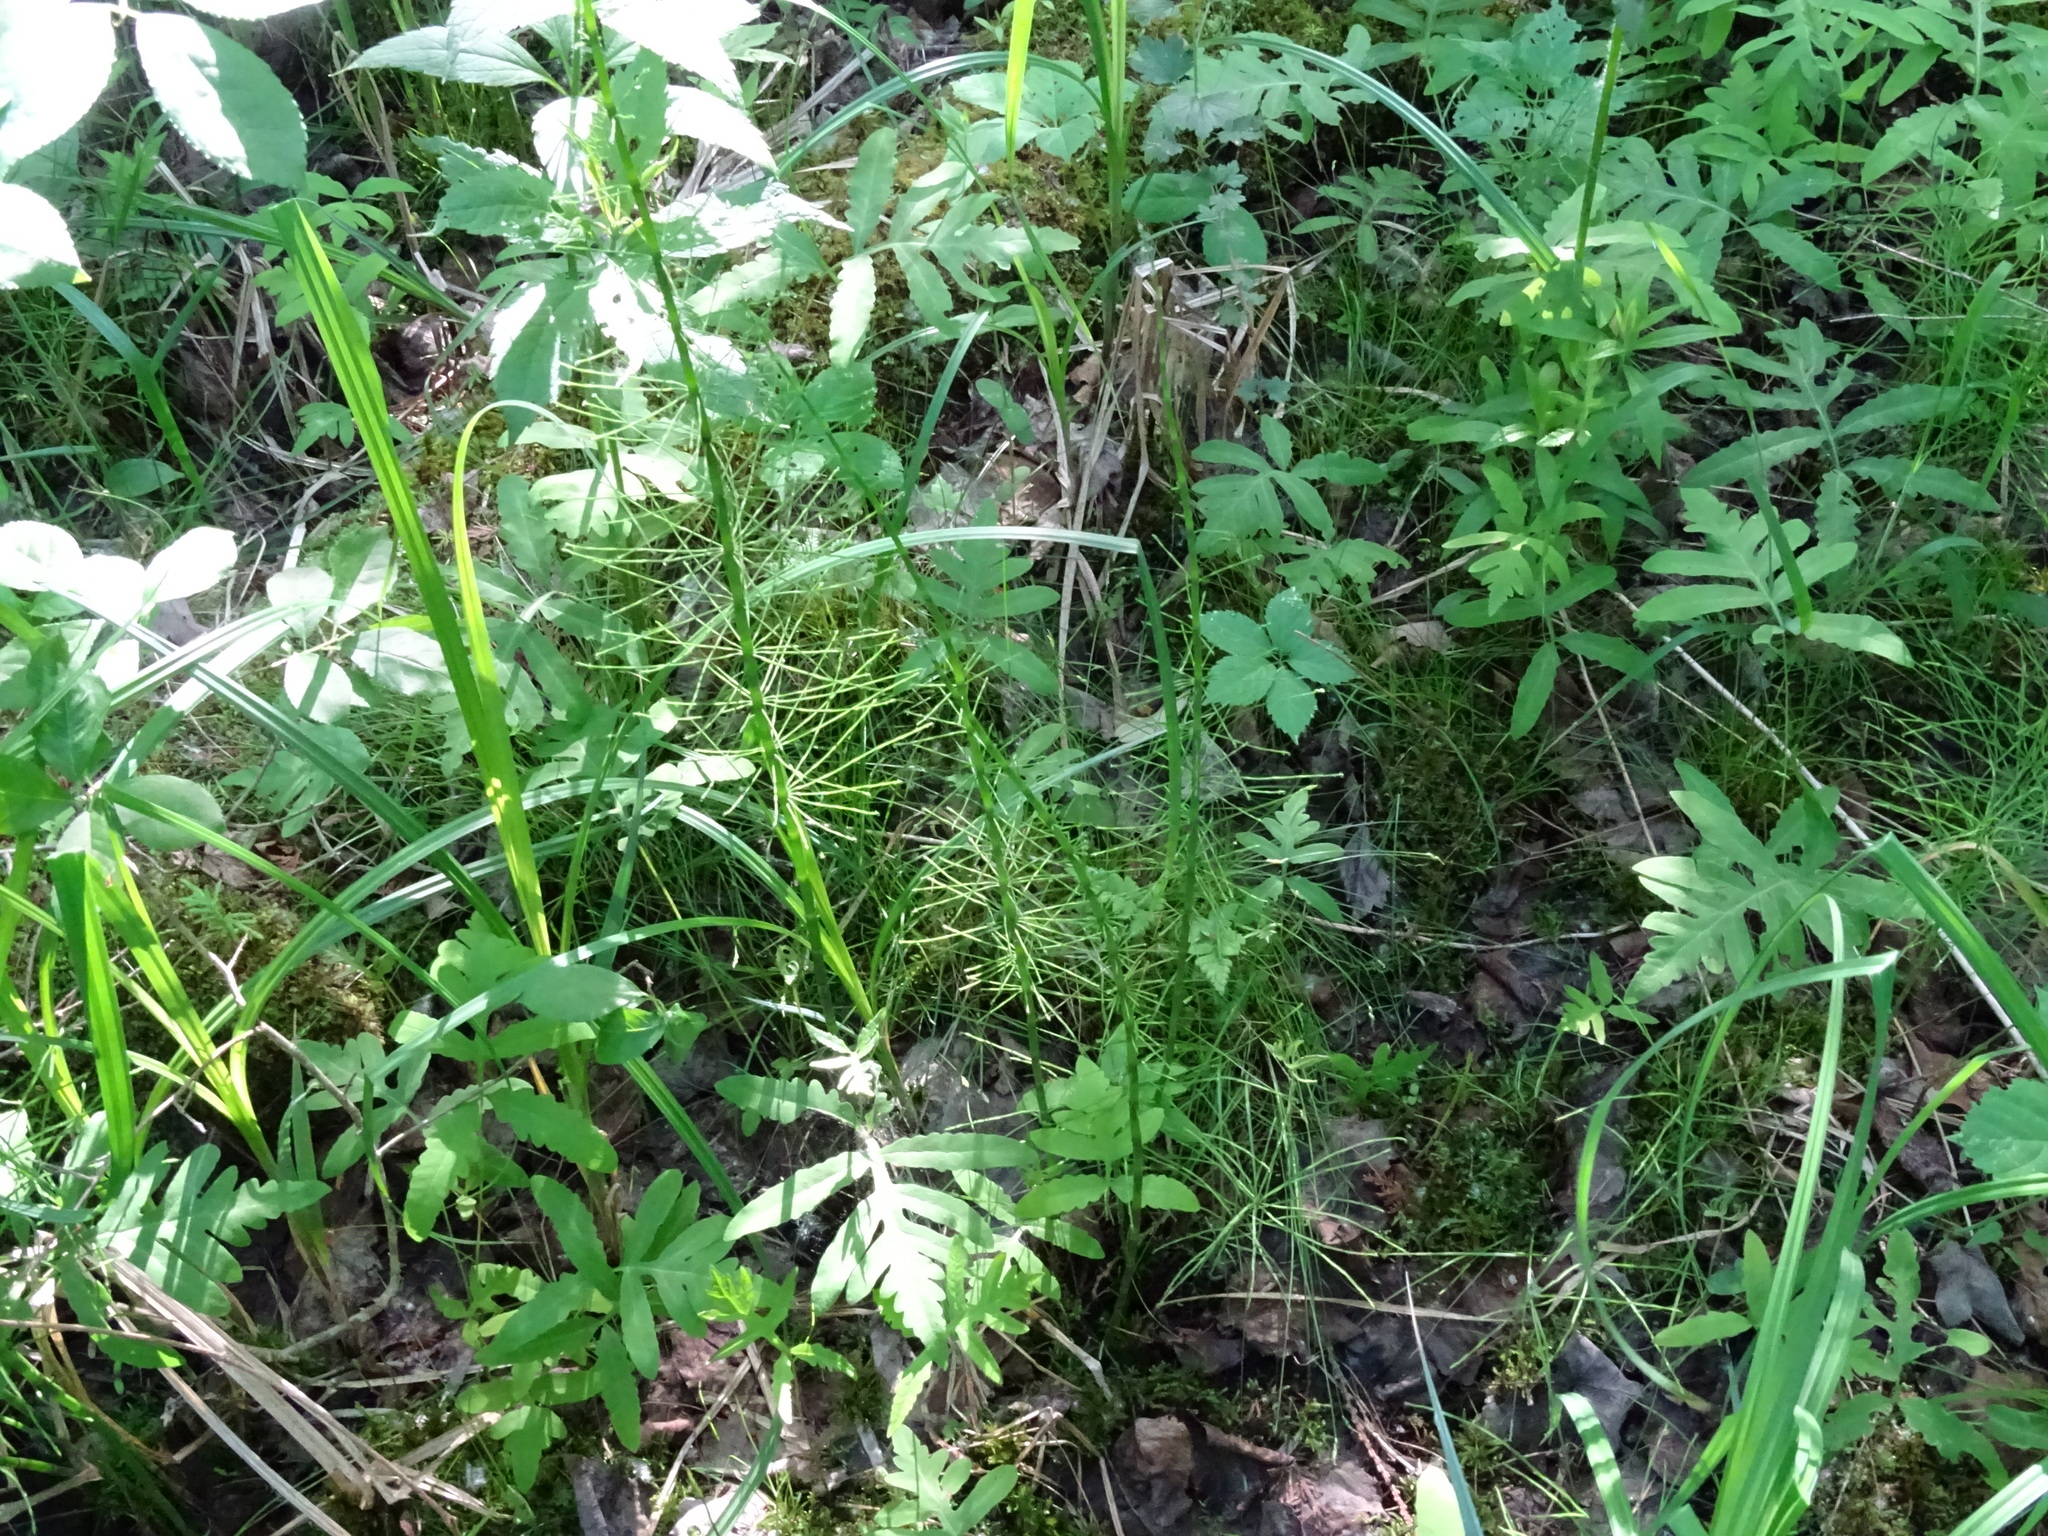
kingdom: Plantae
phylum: Tracheophyta
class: Polypodiopsida
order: Equisetales
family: Equisetaceae
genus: Equisetum
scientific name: Equisetum fluviatile
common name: Water horsetail
